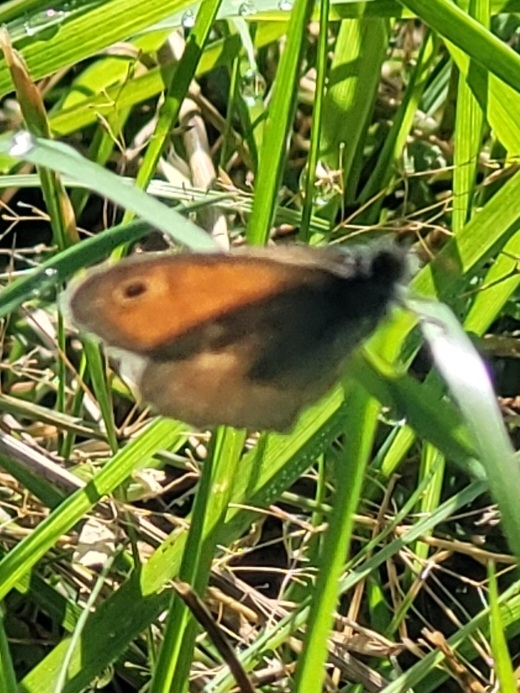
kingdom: Animalia
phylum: Arthropoda
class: Insecta
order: Lepidoptera
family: Nymphalidae
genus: Coenonympha
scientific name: Coenonympha pamphilus
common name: Small heath
